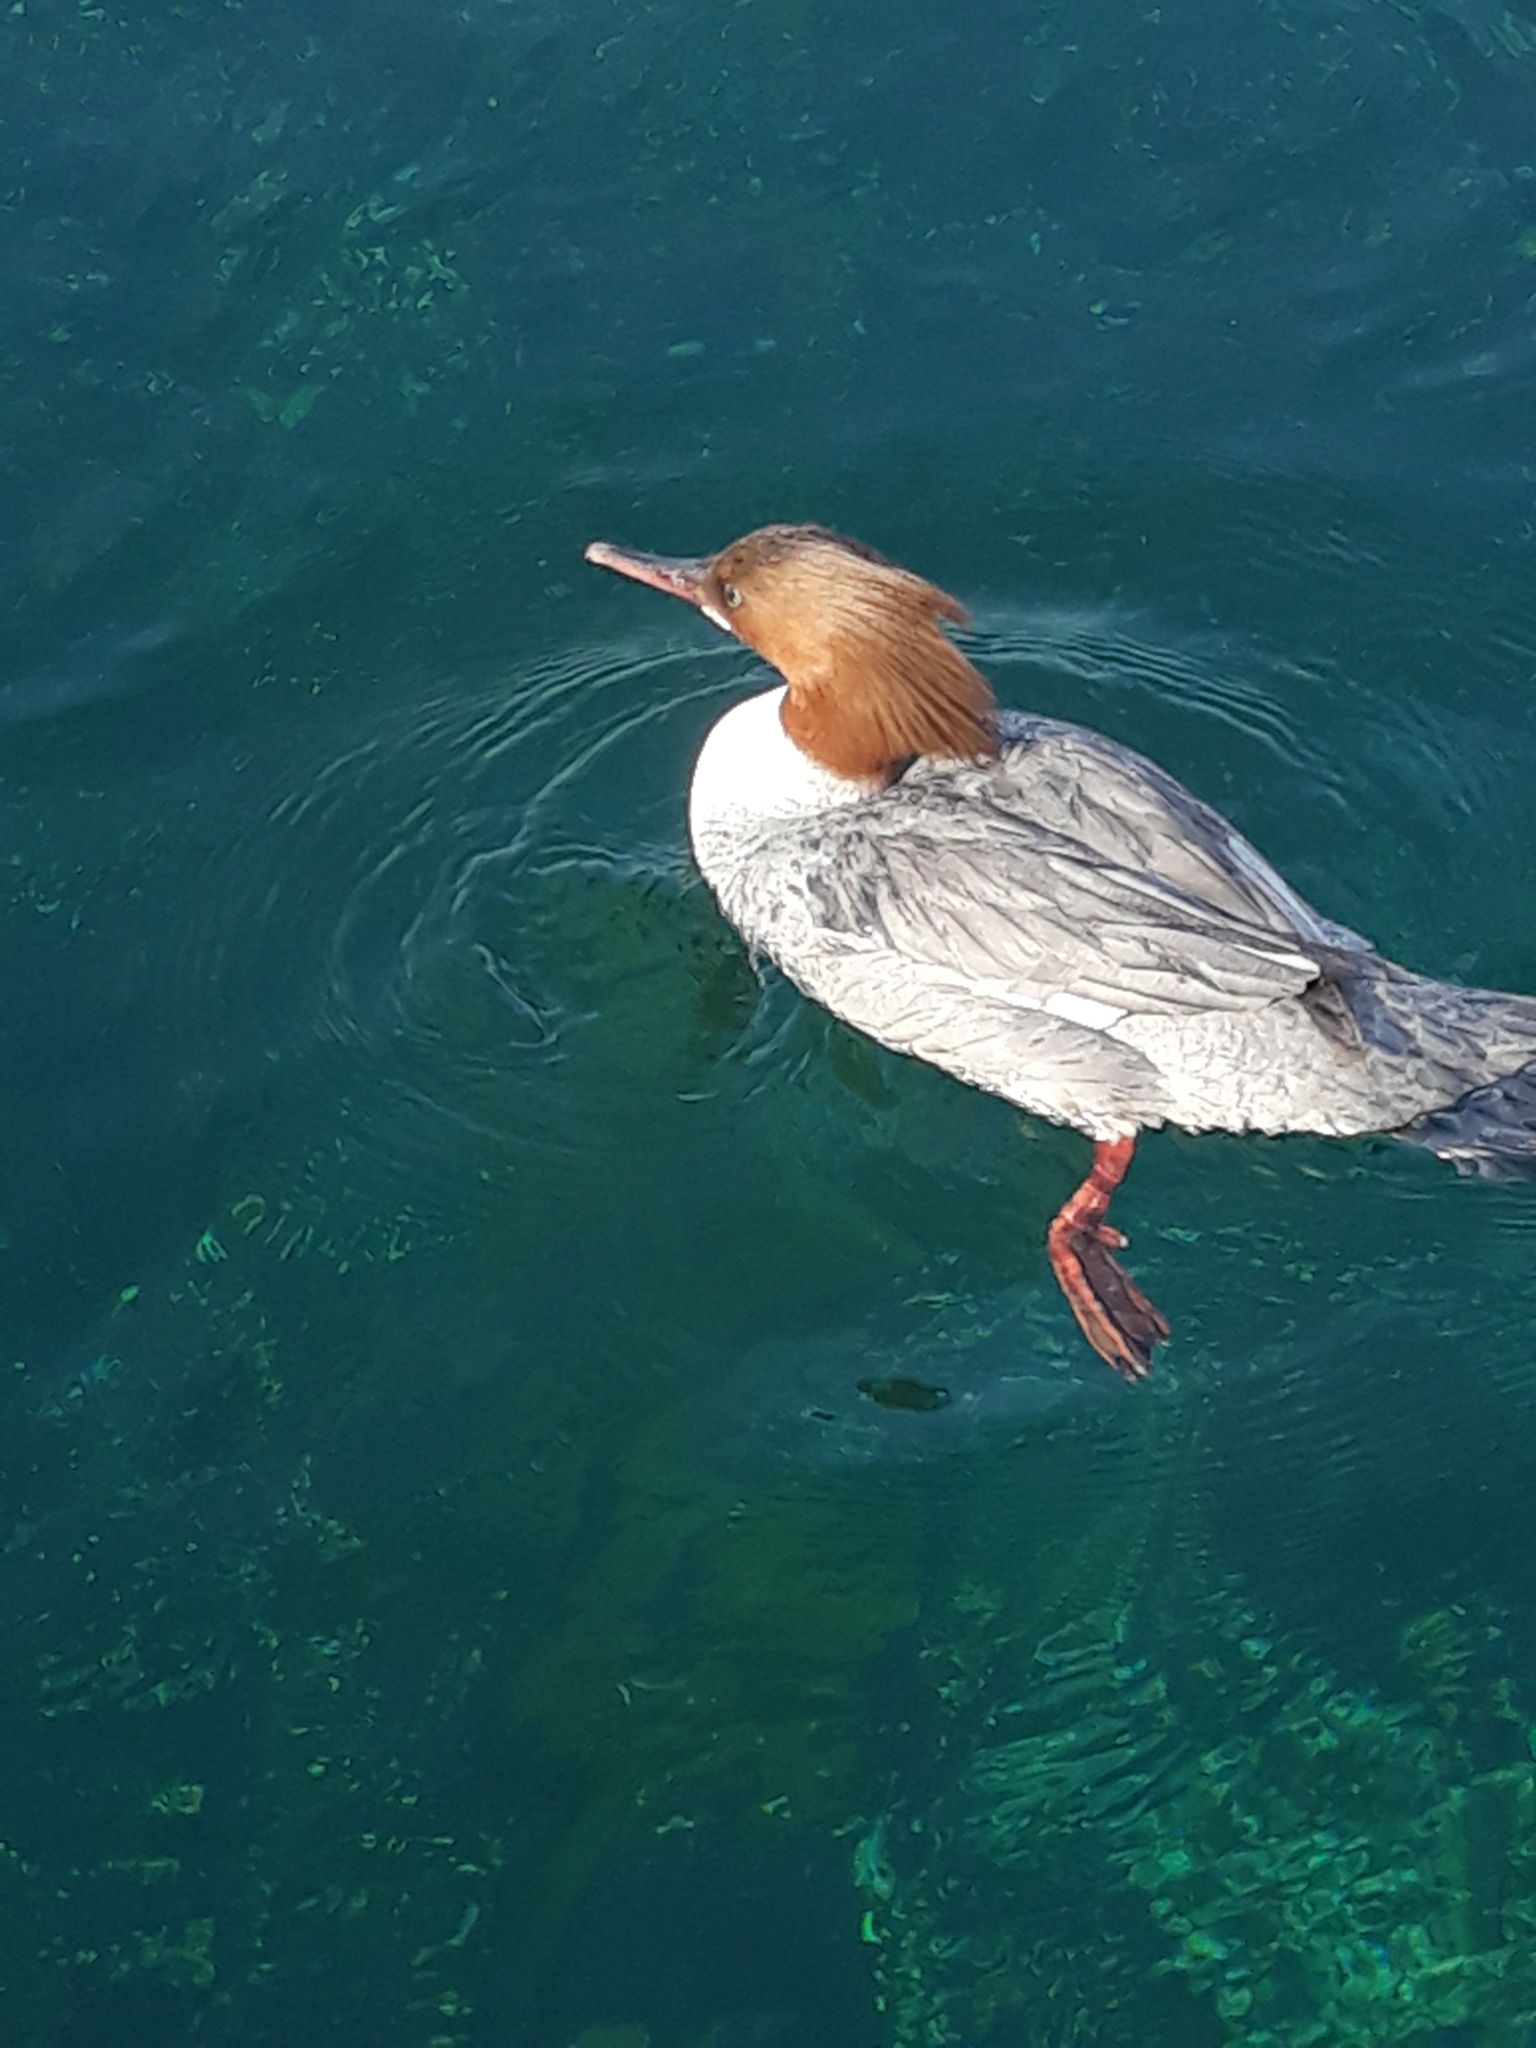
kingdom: Animalia
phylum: Chordata
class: Aves
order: Anseriformes
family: Anatidae
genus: Mergus
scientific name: Mergus merganser
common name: Common merganser
